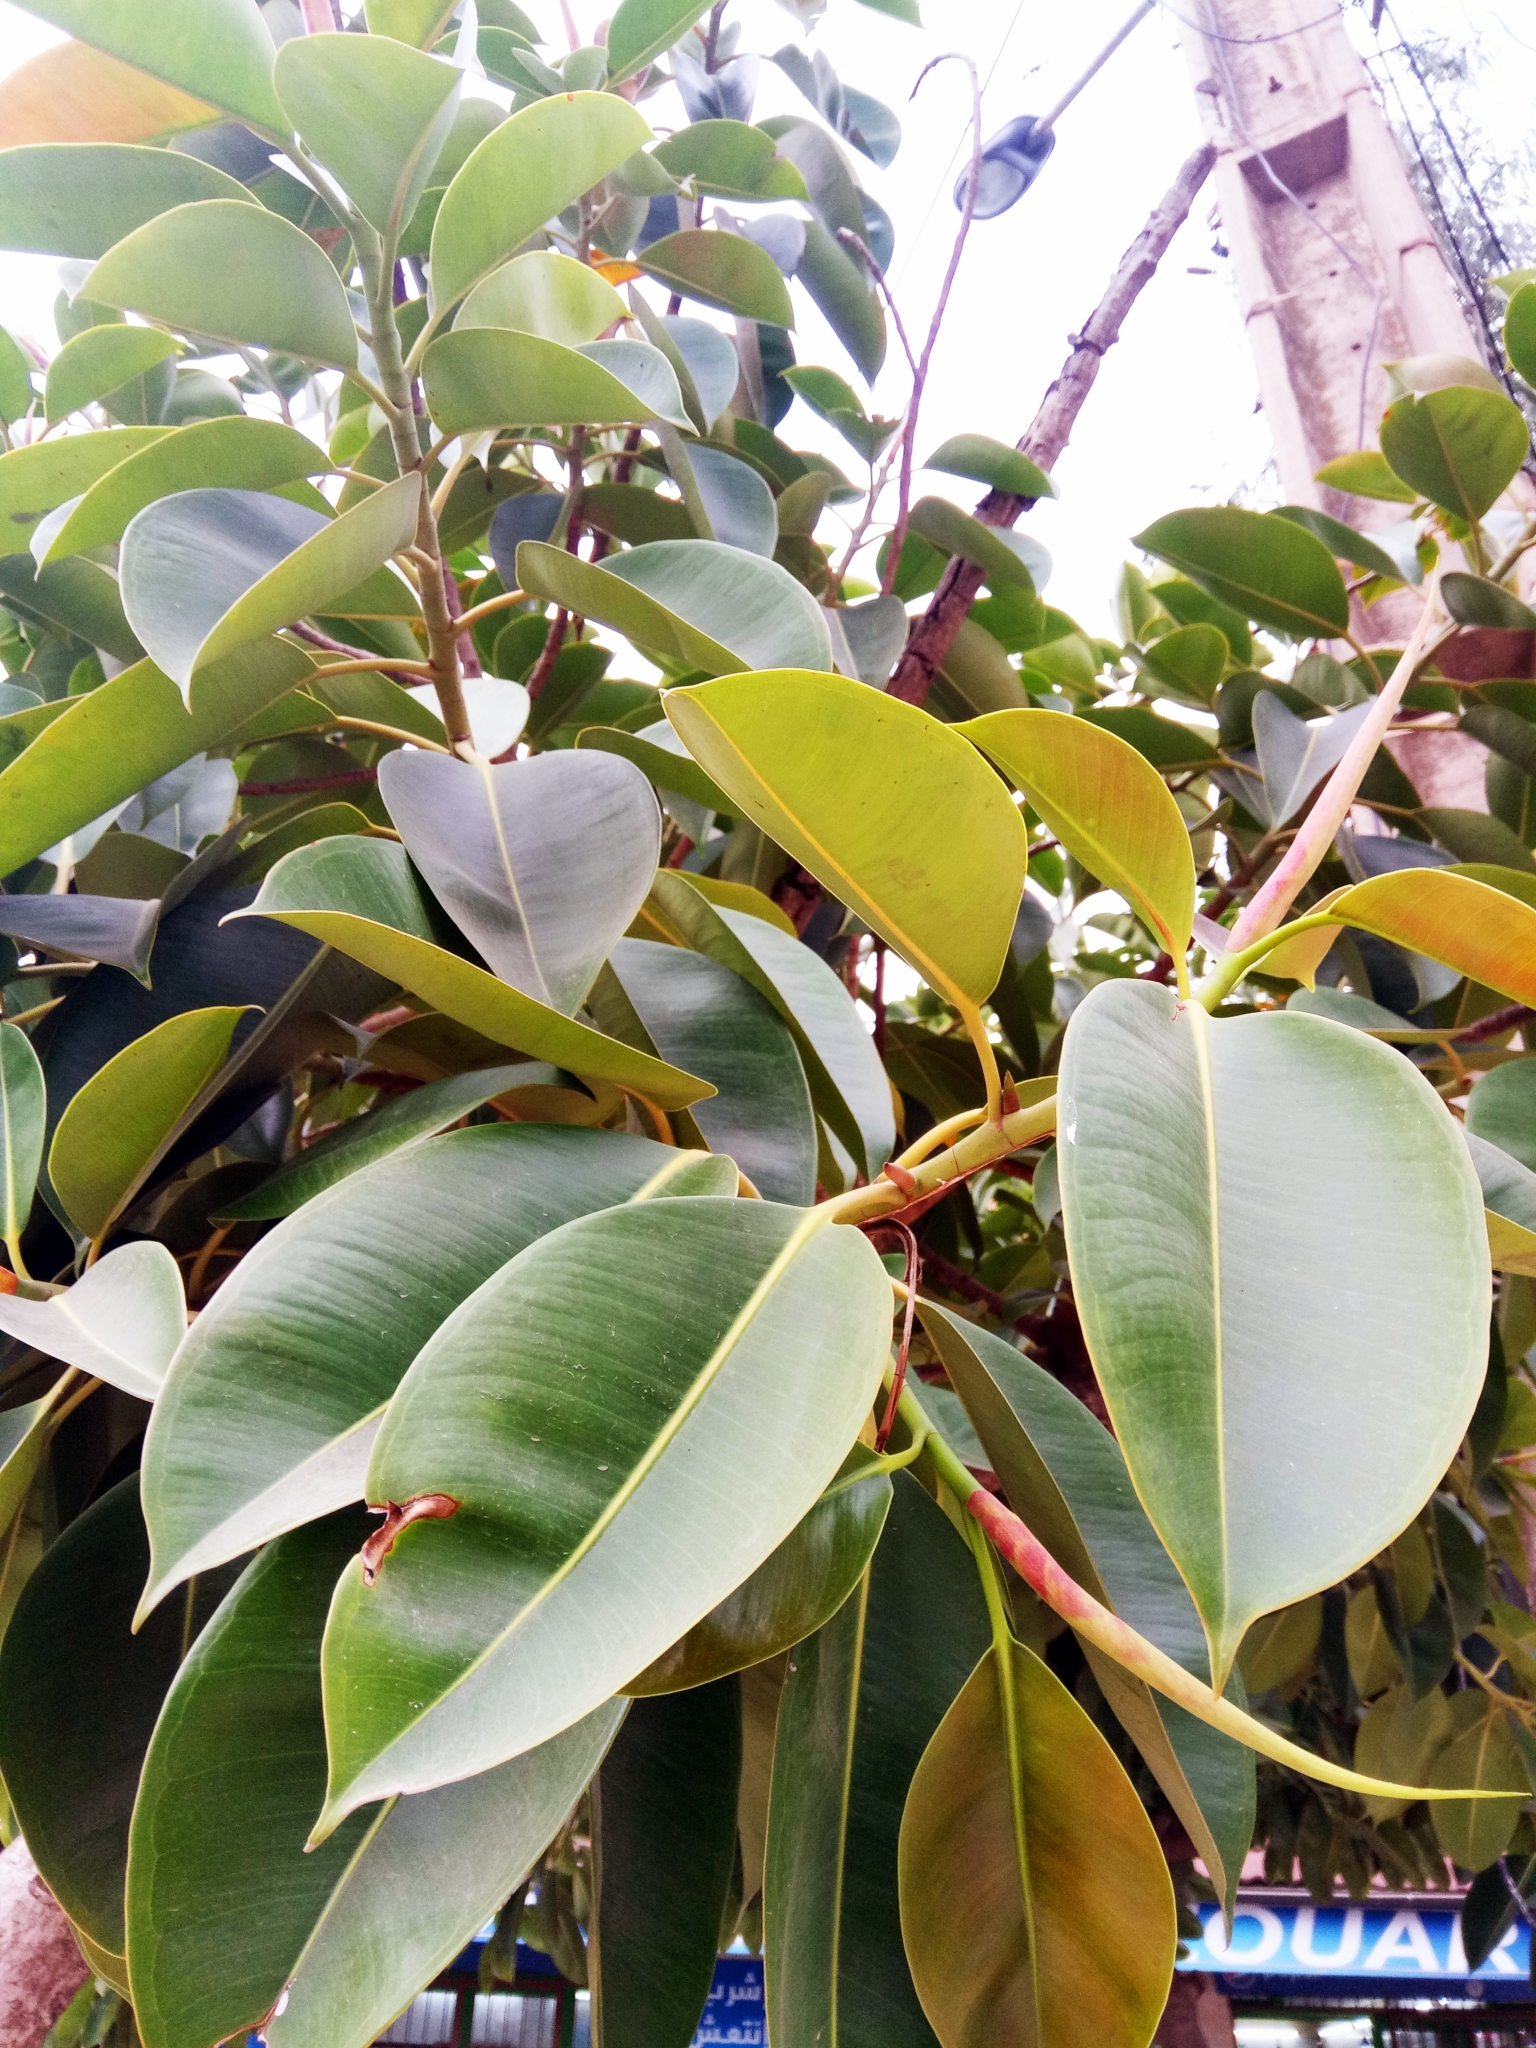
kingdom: Plantae
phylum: Tracheophyta
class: Magnoliopsida
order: Rosales
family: Moraceae
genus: Ficus
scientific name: Ficus elastica
